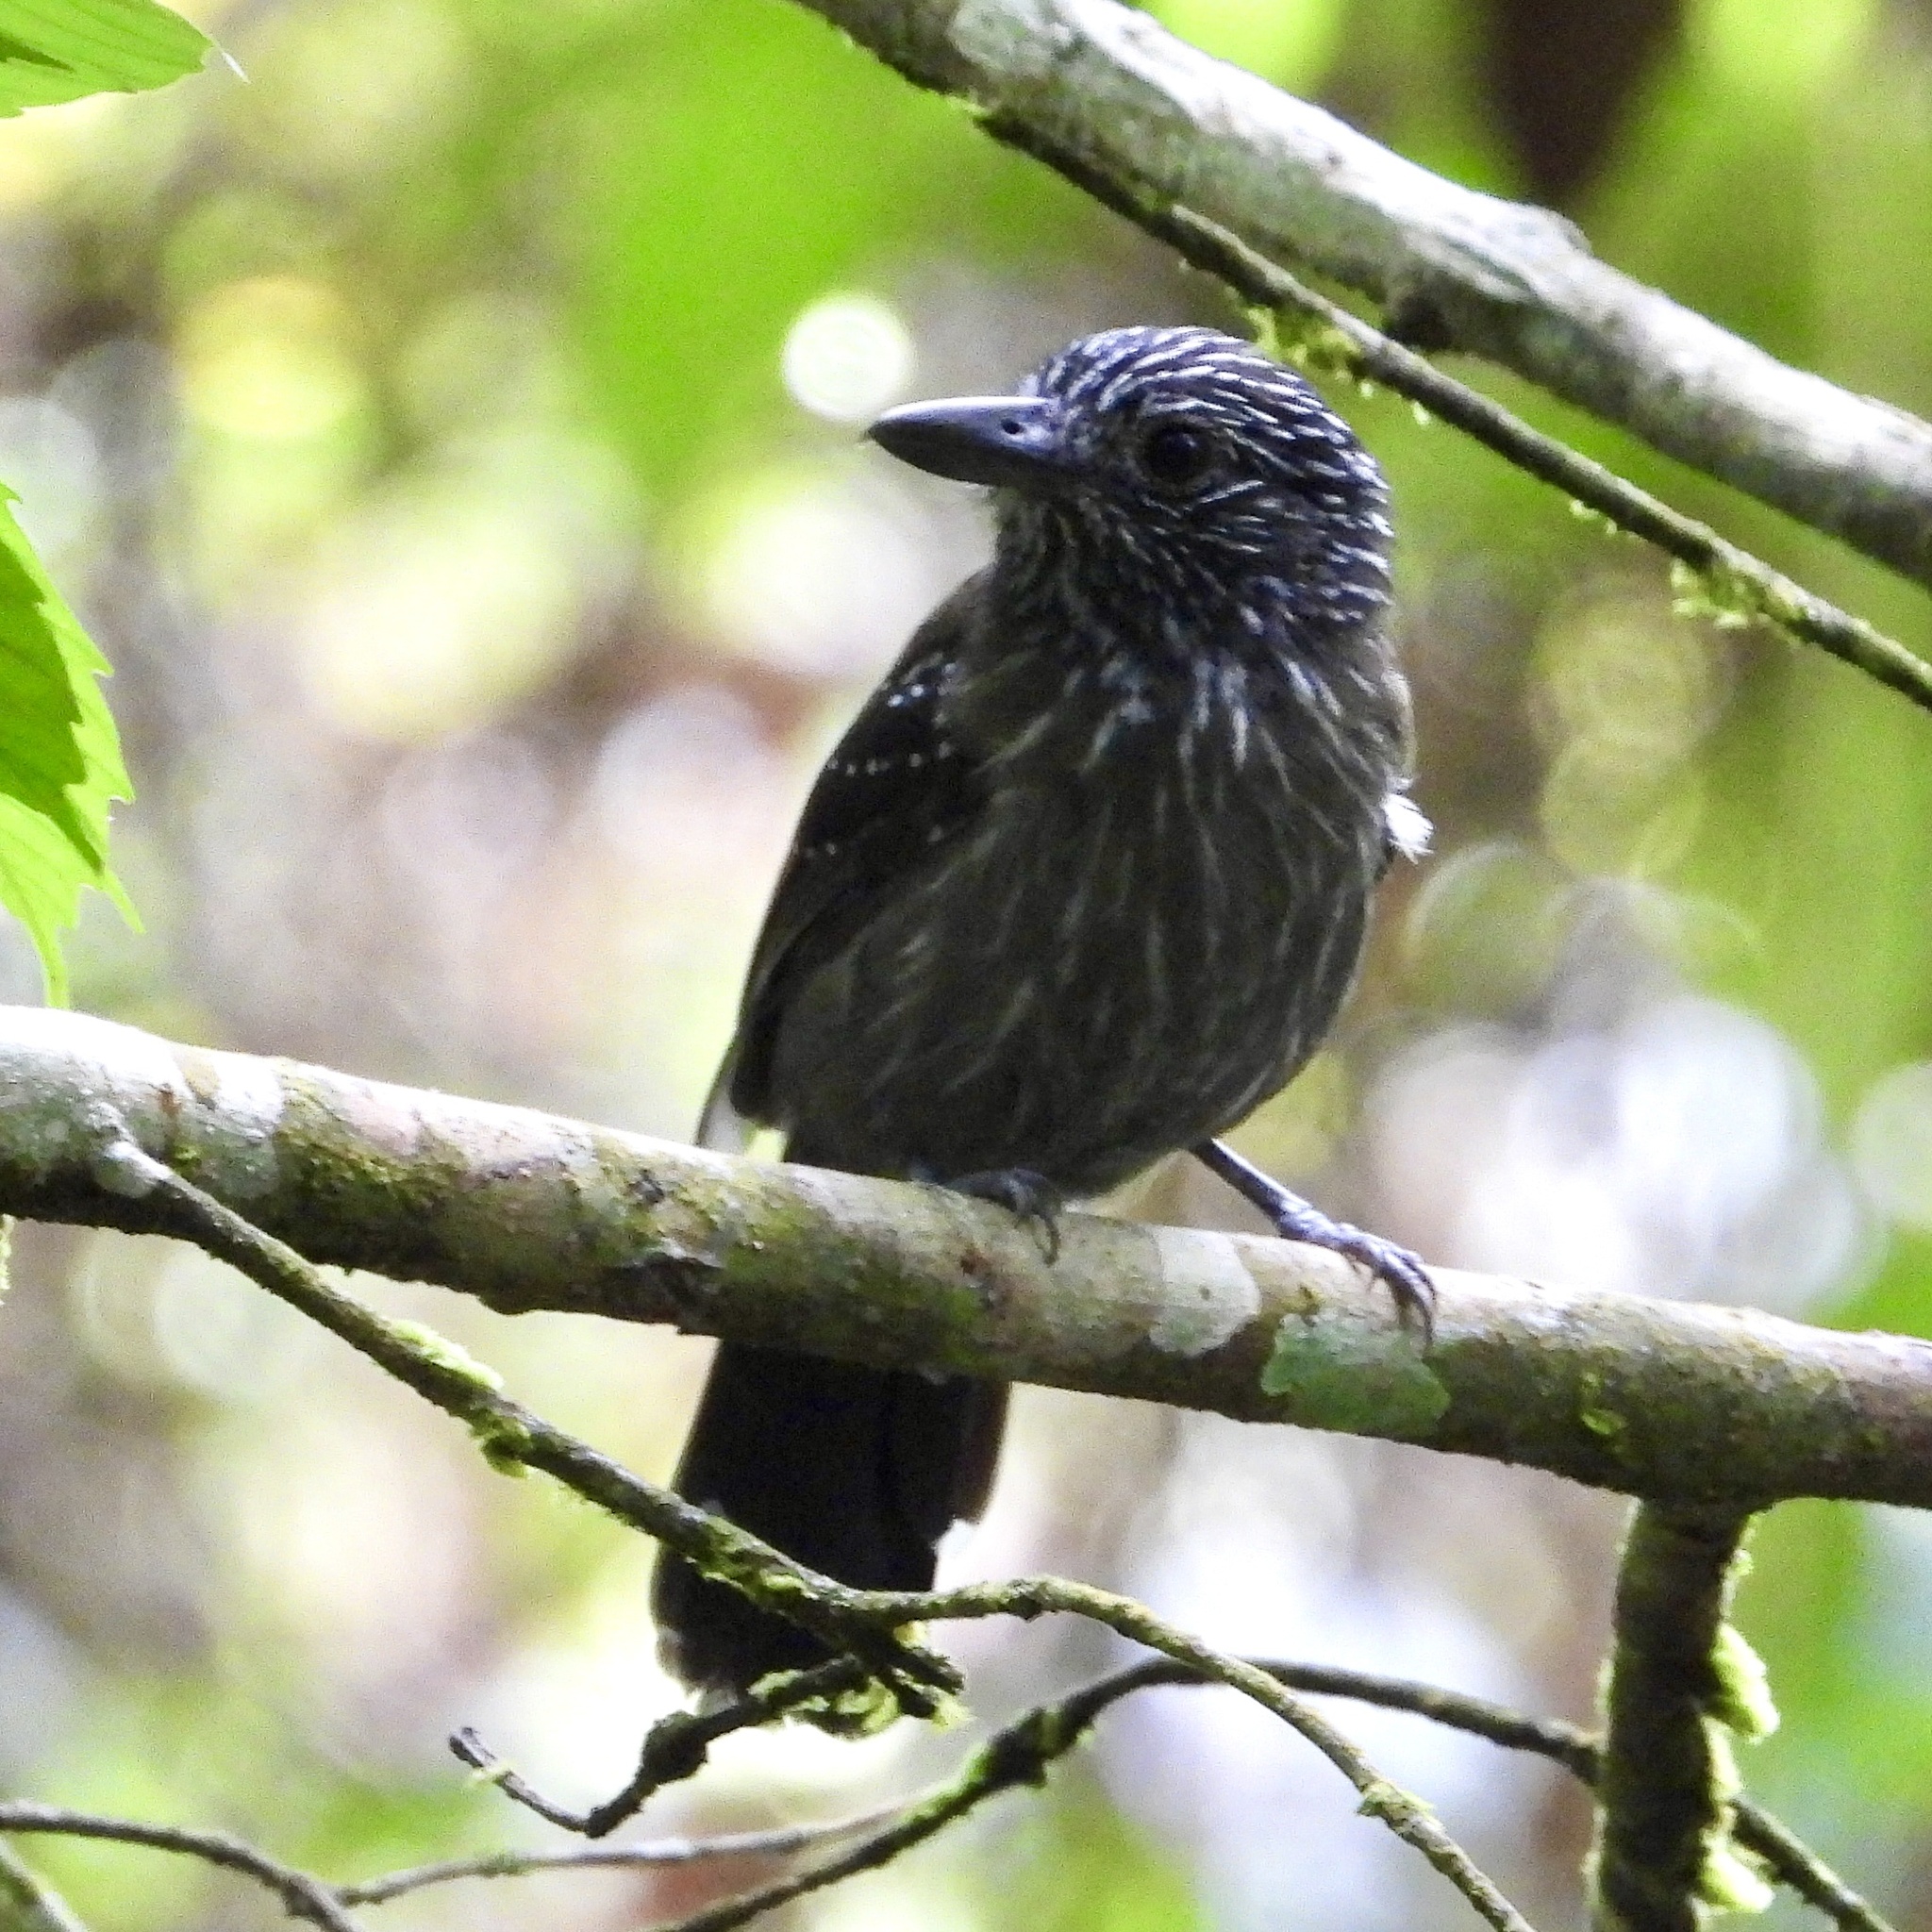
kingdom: Animalia
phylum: Chordata
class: Aves
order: Passeriformes
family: Thamnophilidae
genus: Thamnophilus
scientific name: Thamnophilus bridgesi
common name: Black-hooded antshrike
